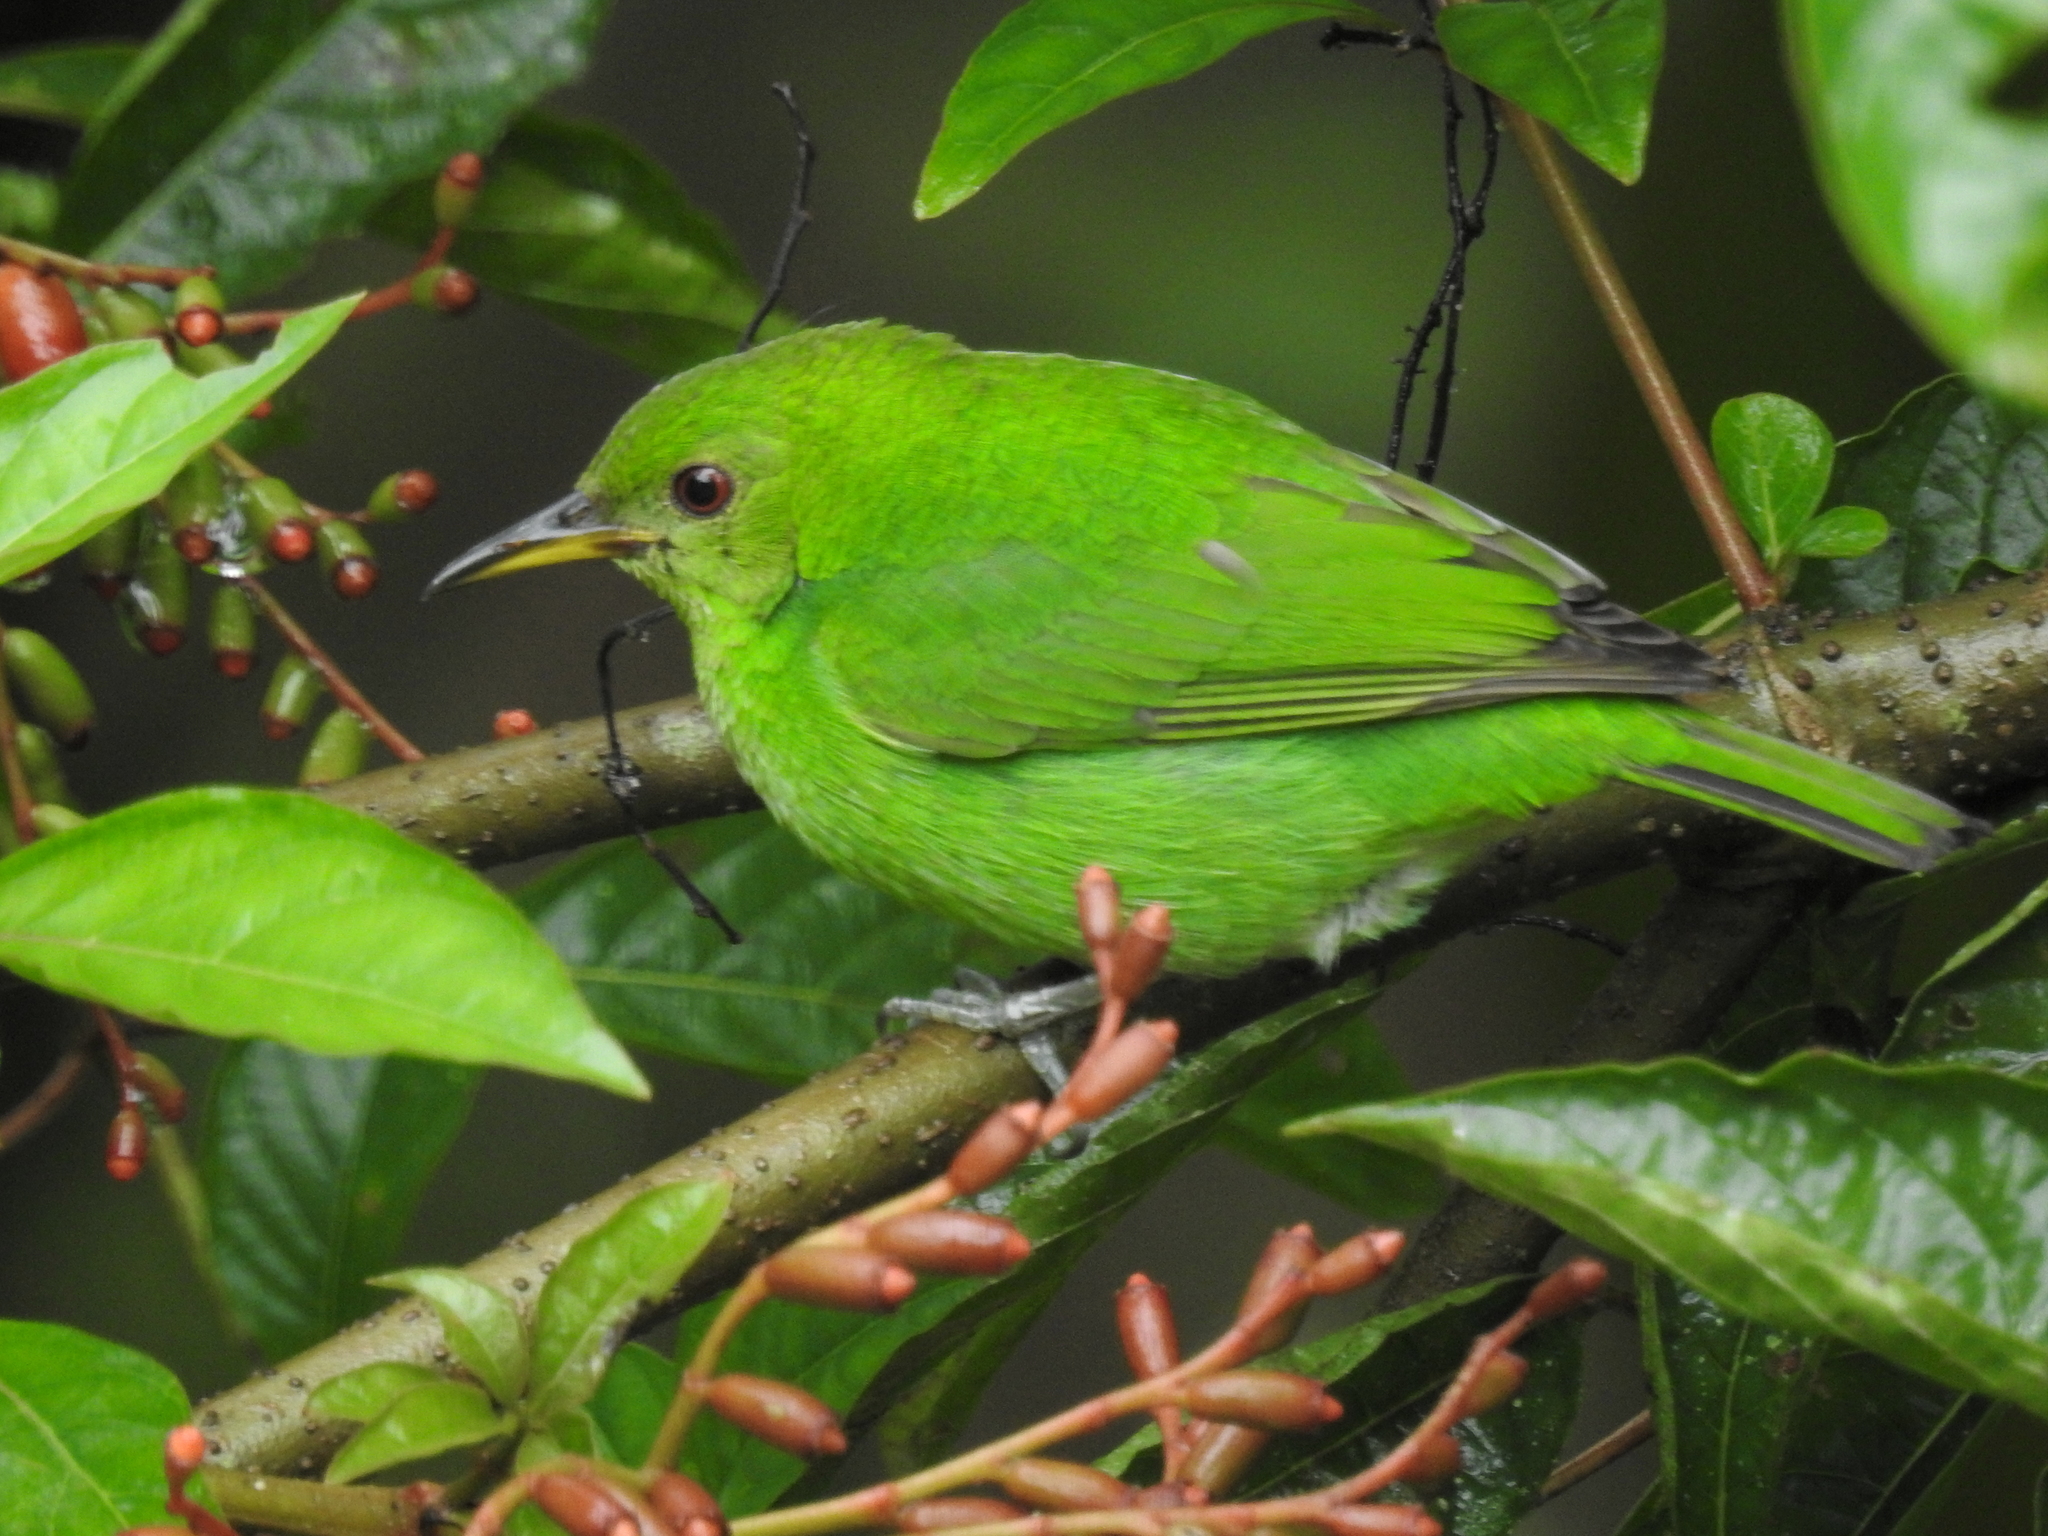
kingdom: Animalia
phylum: Chordata
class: Aves
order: Passeriformes
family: Thraupidae
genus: Chlorophanes
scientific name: Chlorophanes spiza
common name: Green honeycreeper
